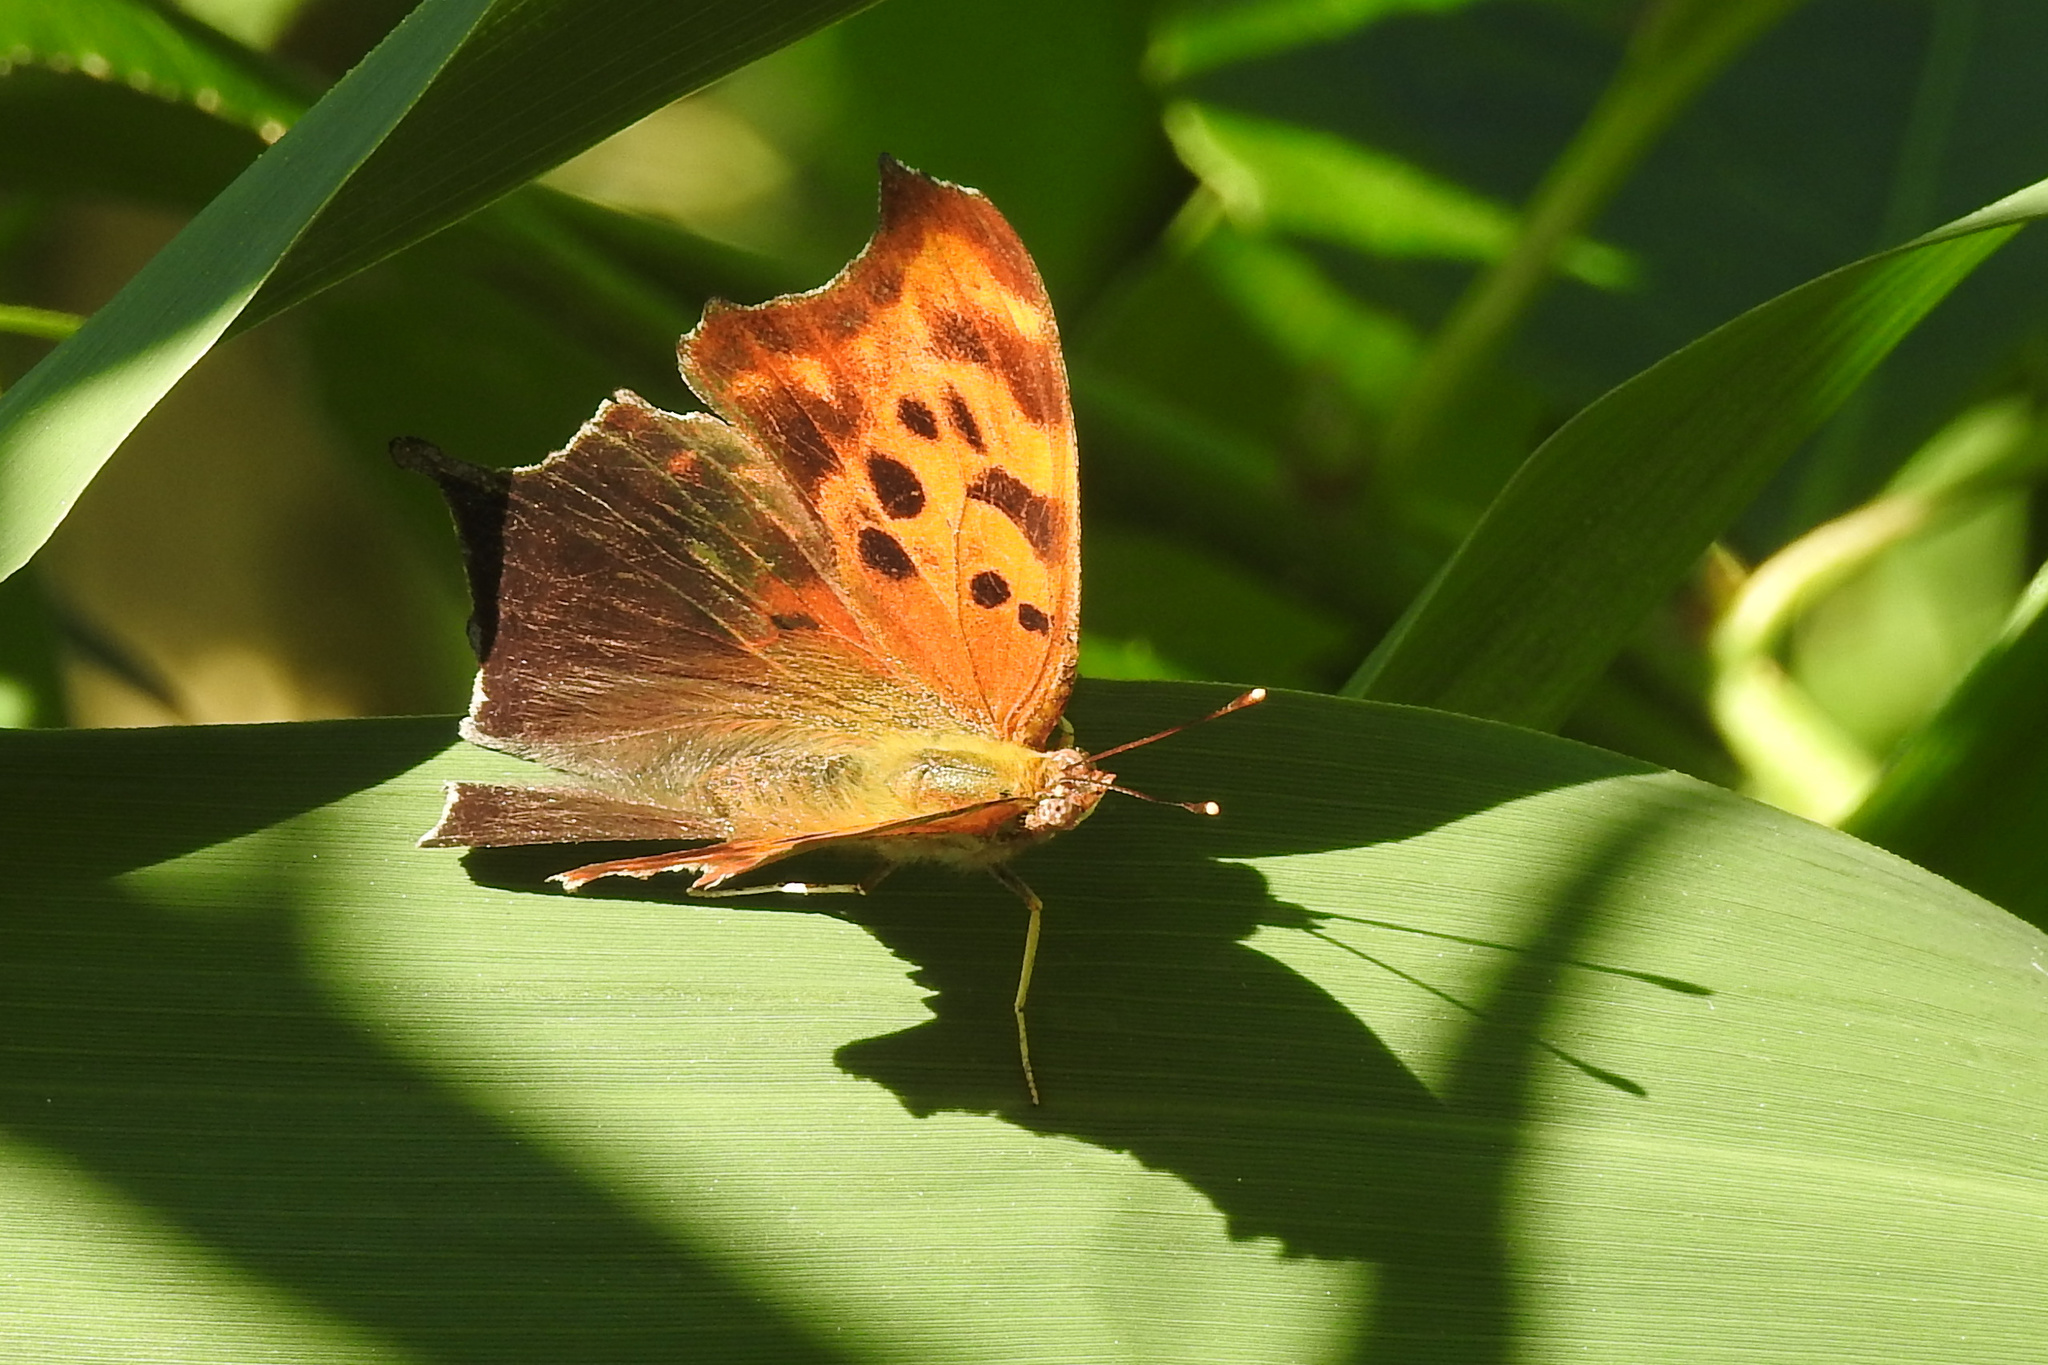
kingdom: Animalia
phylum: Arthropoda
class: Insecta
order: Lepidoptera
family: Nymphalidae
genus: Polygonia
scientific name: Polygonia interrogationis
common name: Question mark
